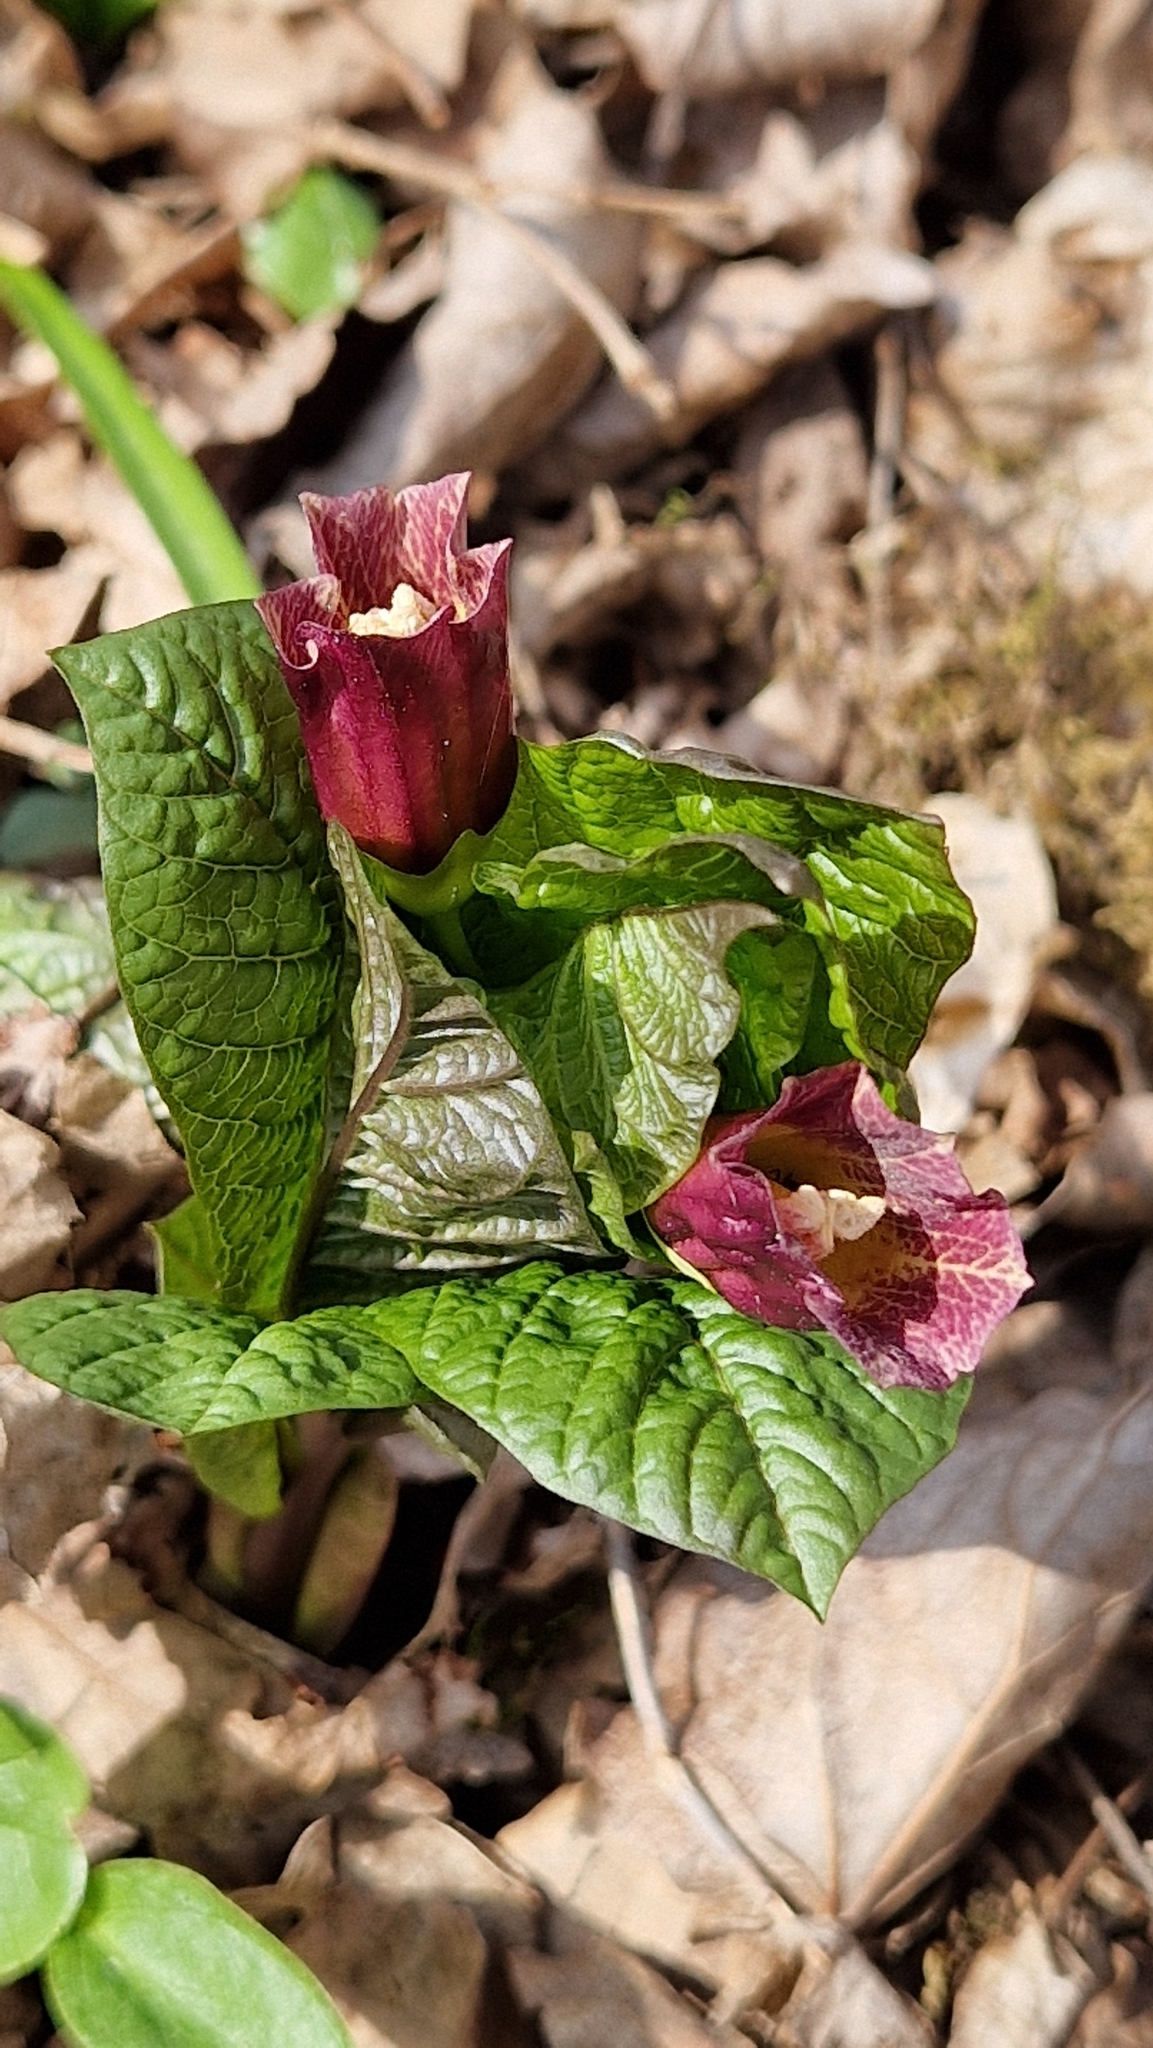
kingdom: Plantae
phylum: Tracheophyta
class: Magnoliopsida
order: Solanales
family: Solanaceae
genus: Scopolia
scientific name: Scopolia carniolica
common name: Scopolia
